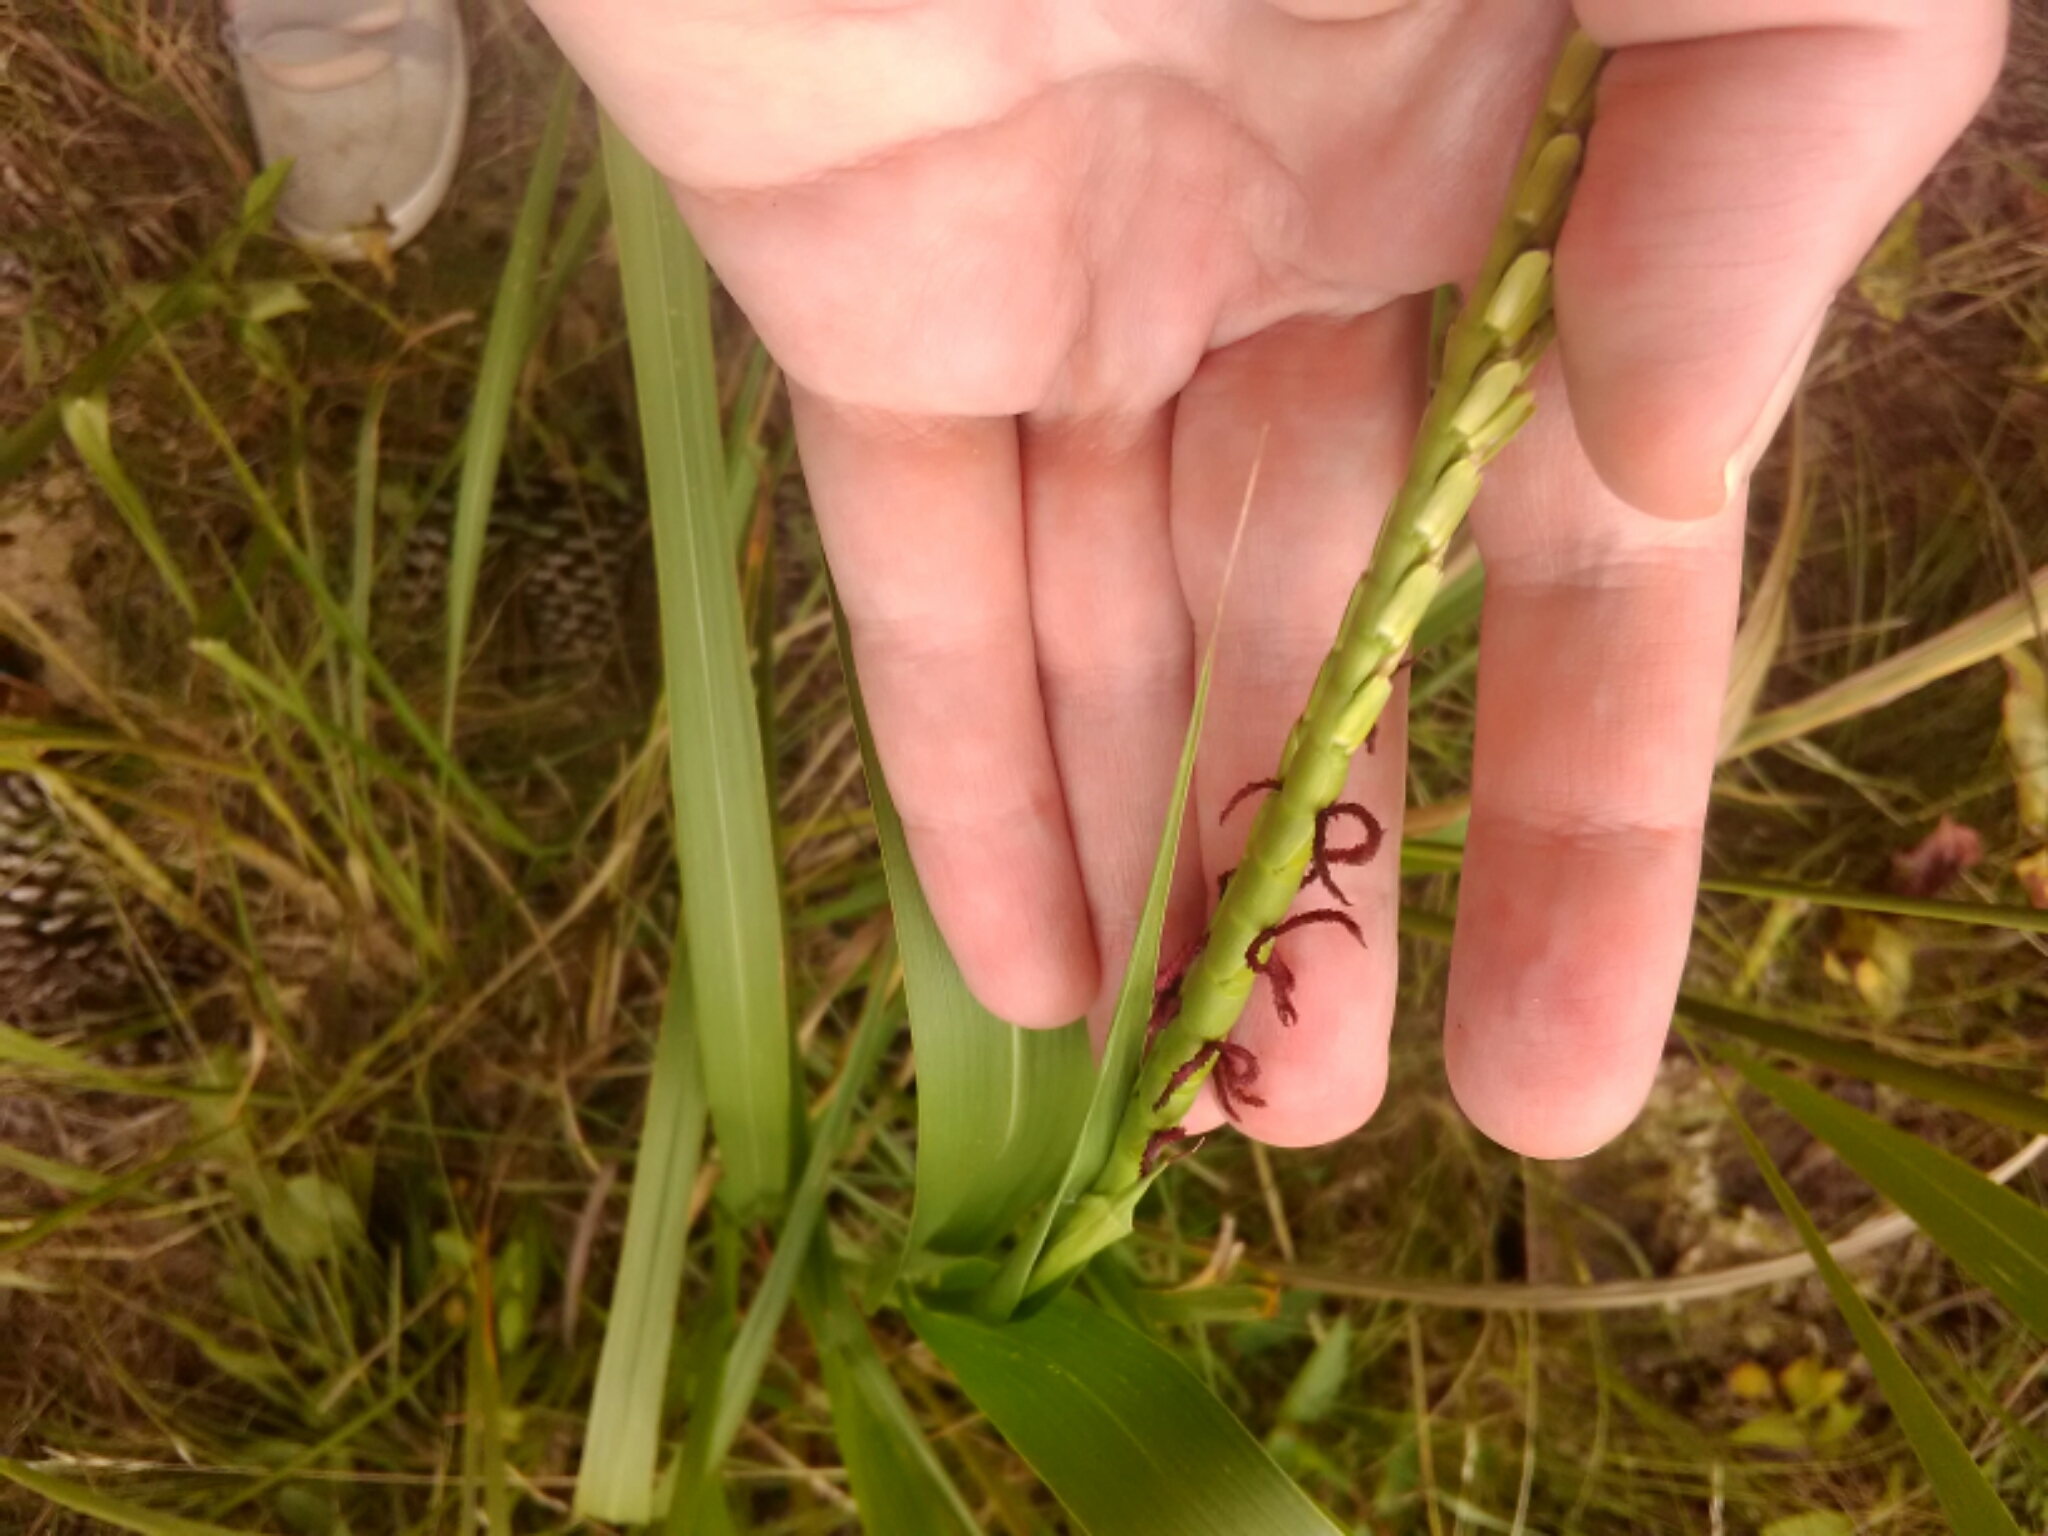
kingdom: Plantae
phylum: Tracheophyta
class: Liliopsida
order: Poales
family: Poaceae
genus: Tripsacum
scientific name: Tripsacum dactyloides
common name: Buffalo-grass
